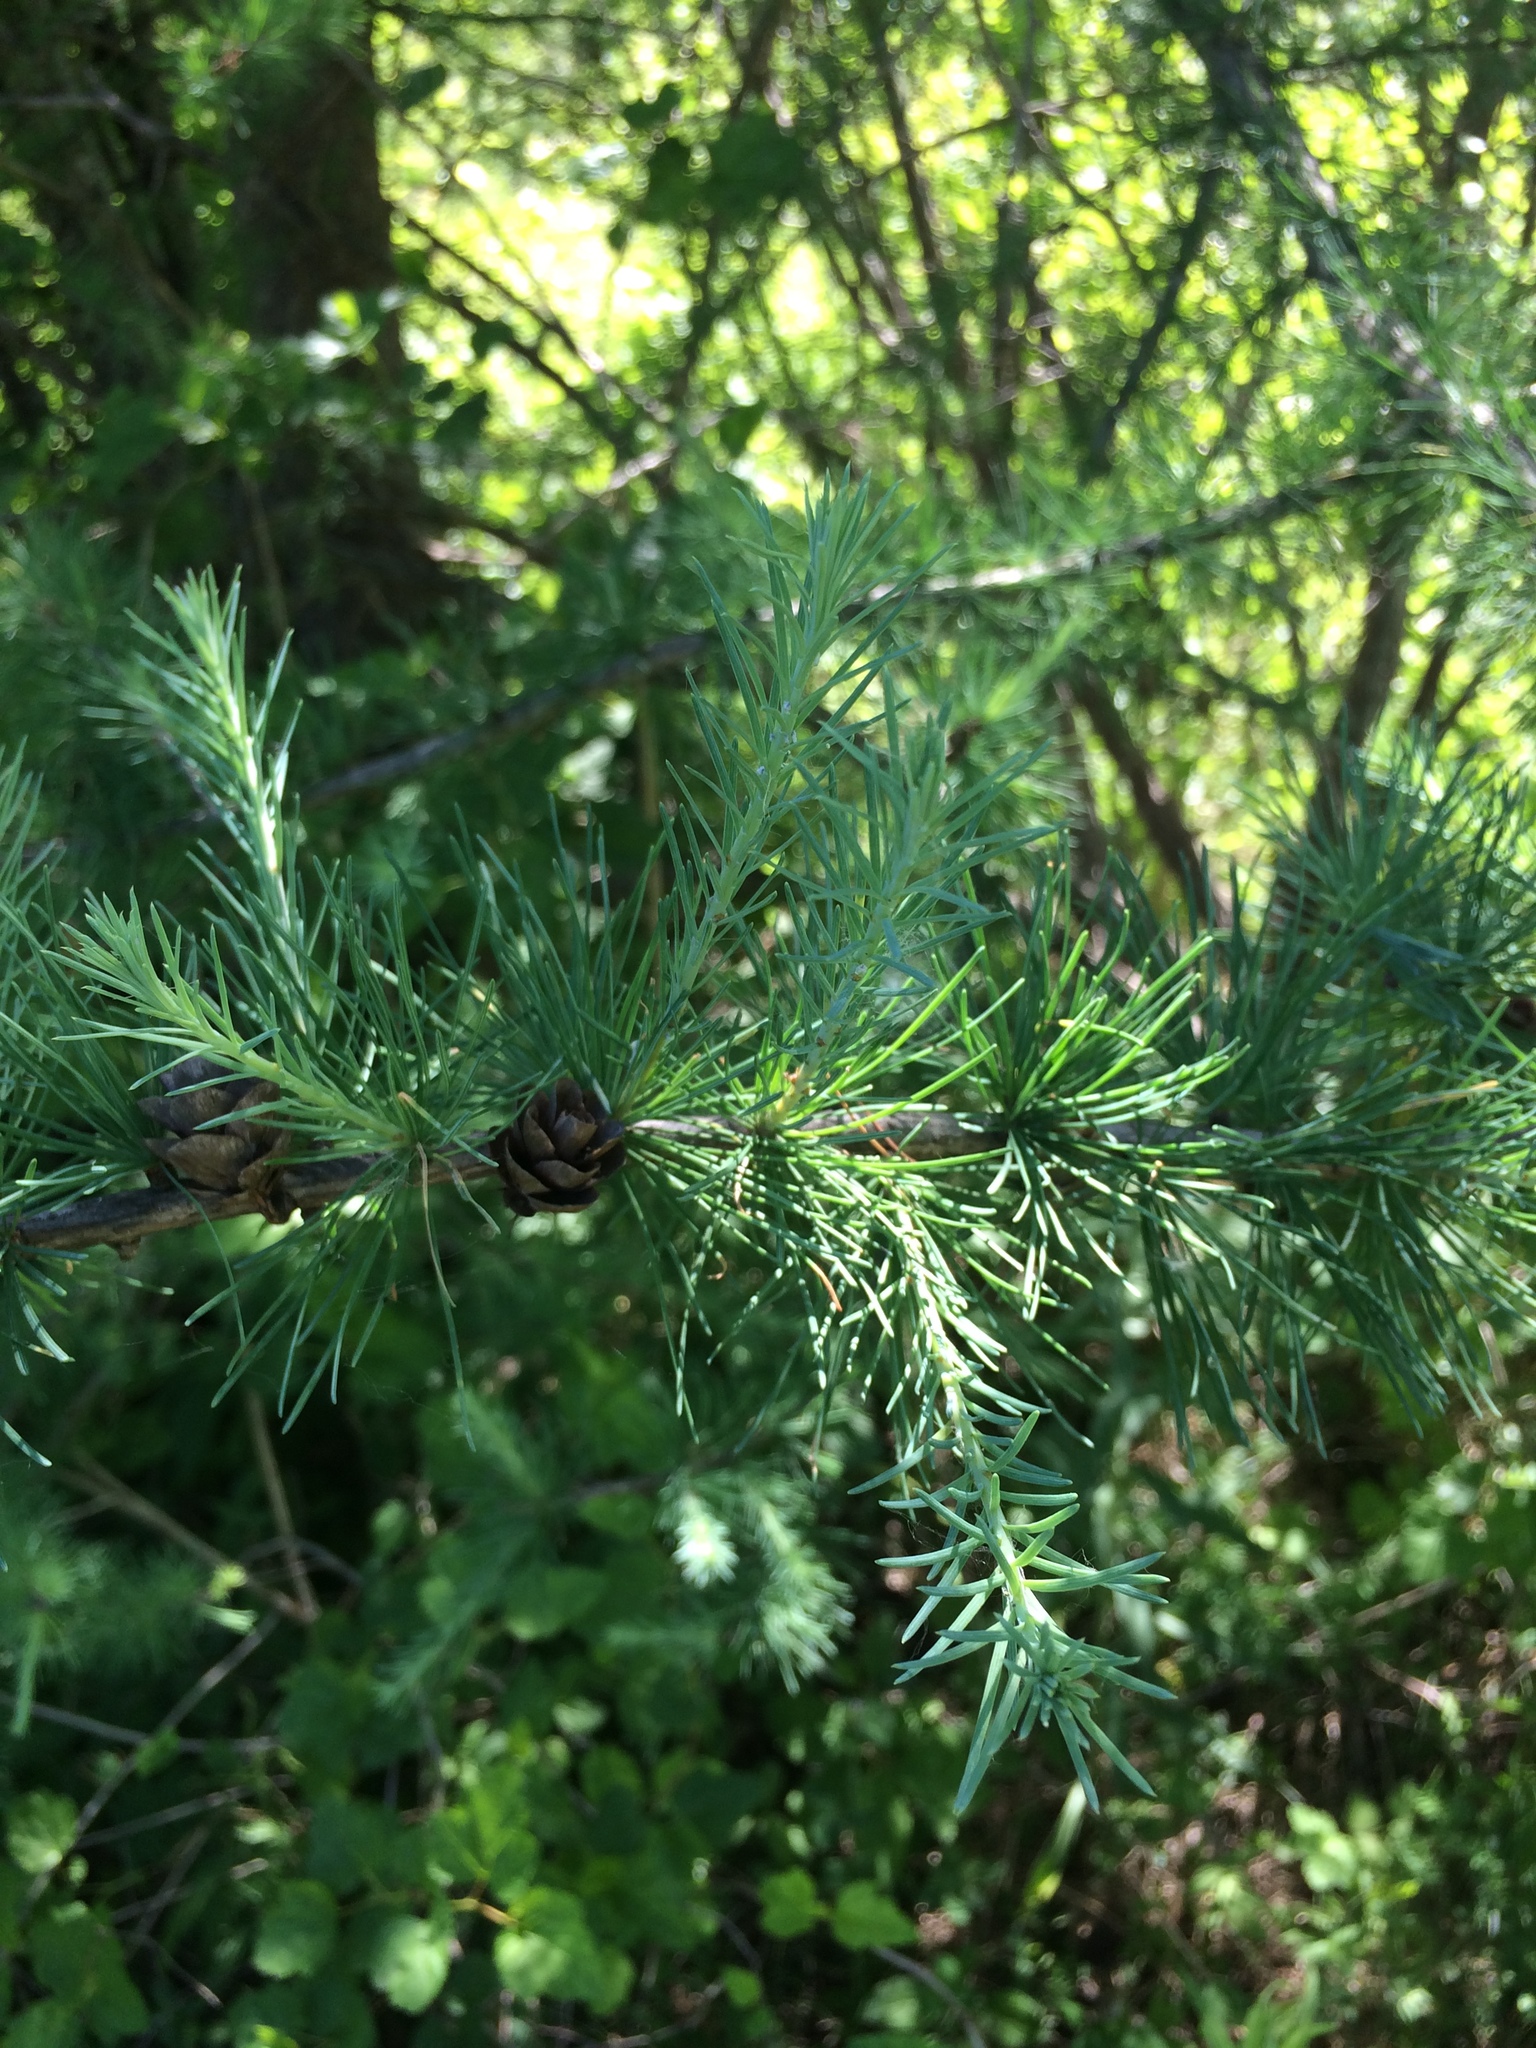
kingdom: Plantae
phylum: Tracheophyta
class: Pinopsida
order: Pinales
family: Pinaceae
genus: Larix
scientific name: Larix laricina
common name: American larch
